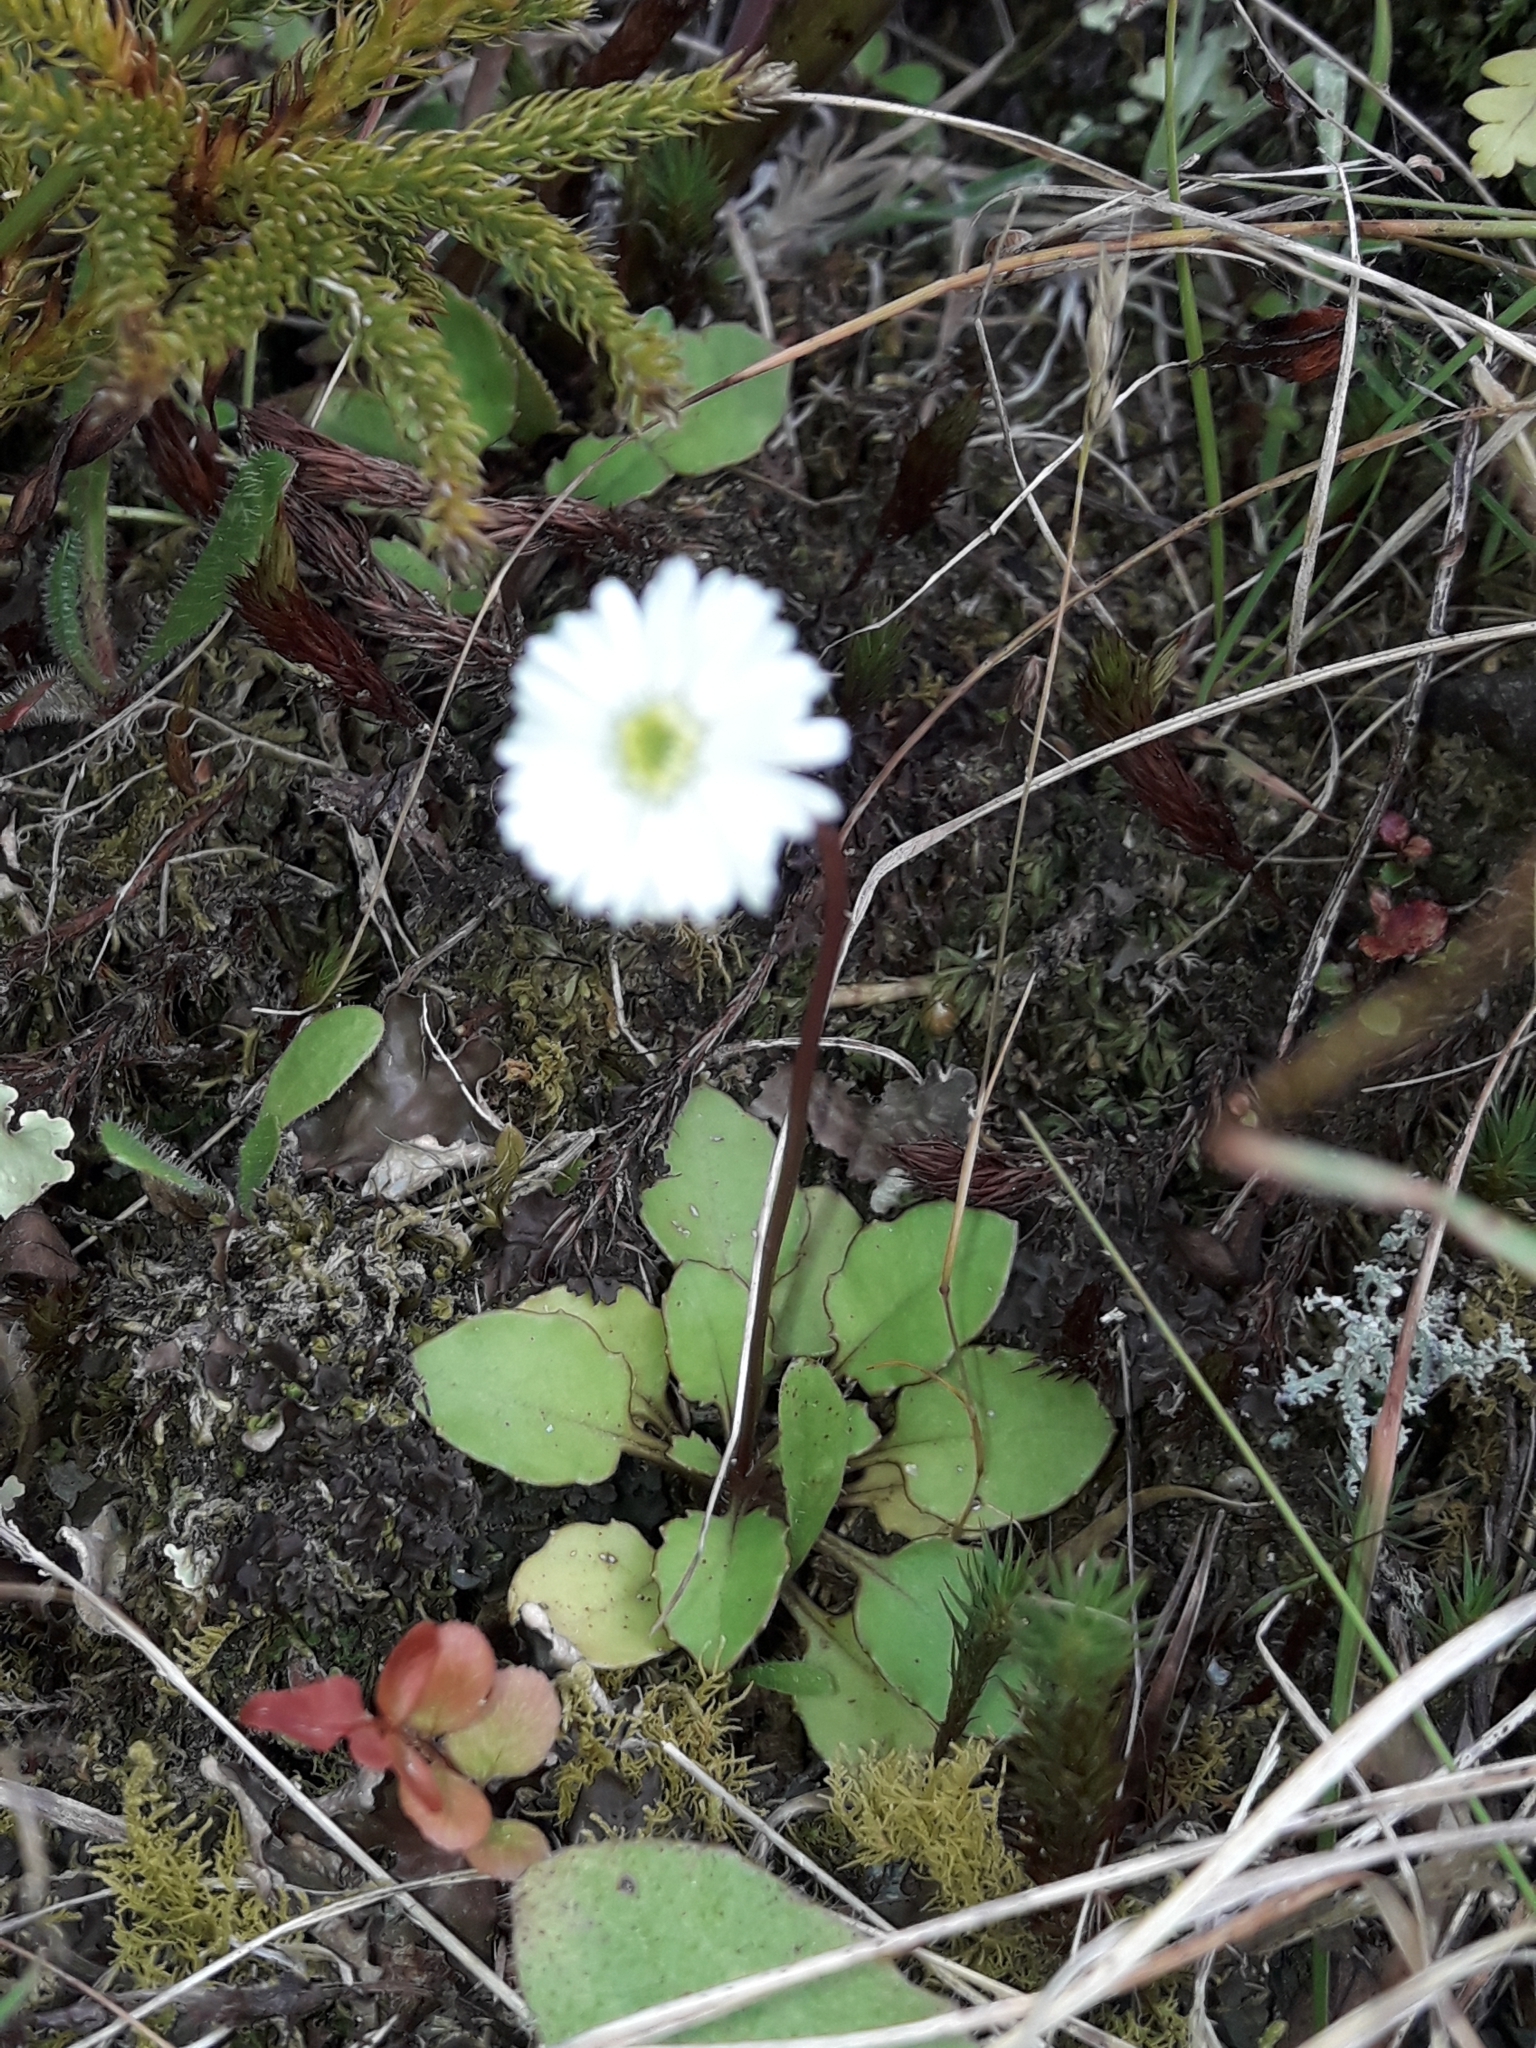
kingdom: Plantae
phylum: Tracheophyta
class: Magnoliopsida
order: Asterales
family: Asteraceae
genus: Lagenophora
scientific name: Lagenophora pumila
